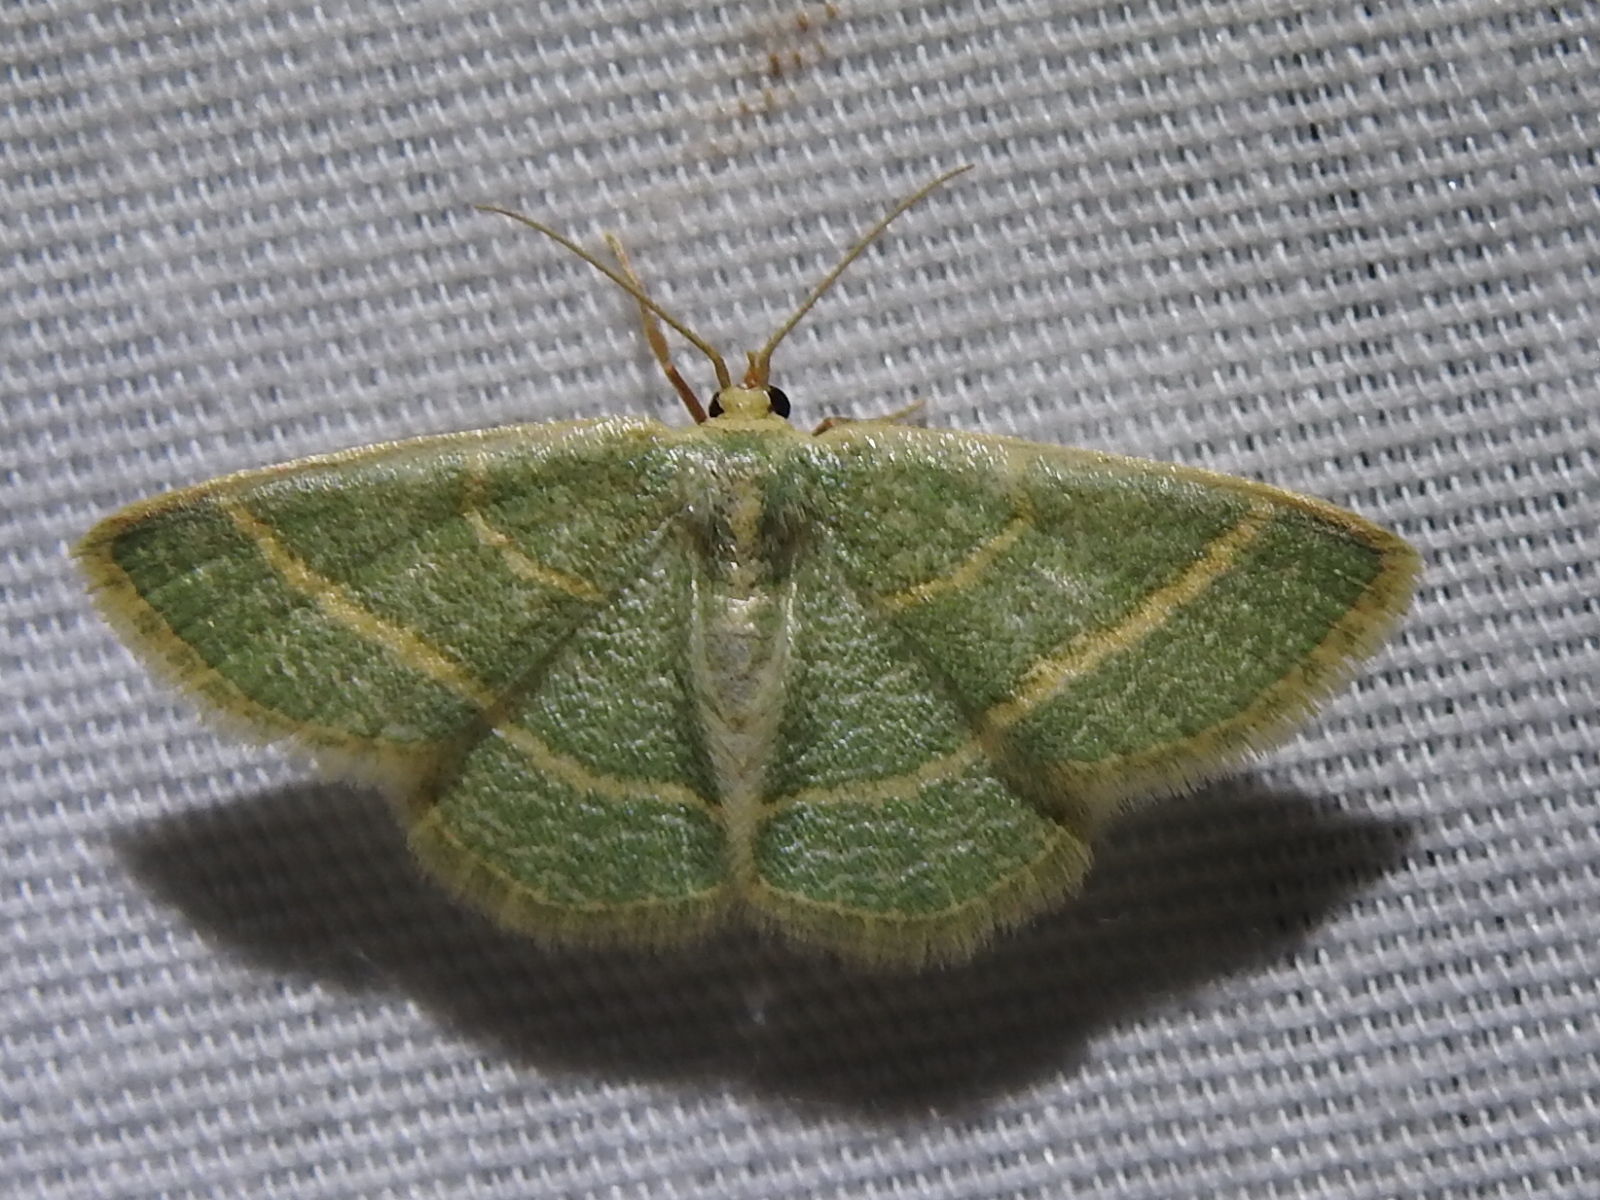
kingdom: Animalia
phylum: Arthropoda
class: Insecta
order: Lepidoptera
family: Geometridae
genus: Chlorochlamys
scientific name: Chlorochlamys chloroleucaria
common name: Blackberry looper
